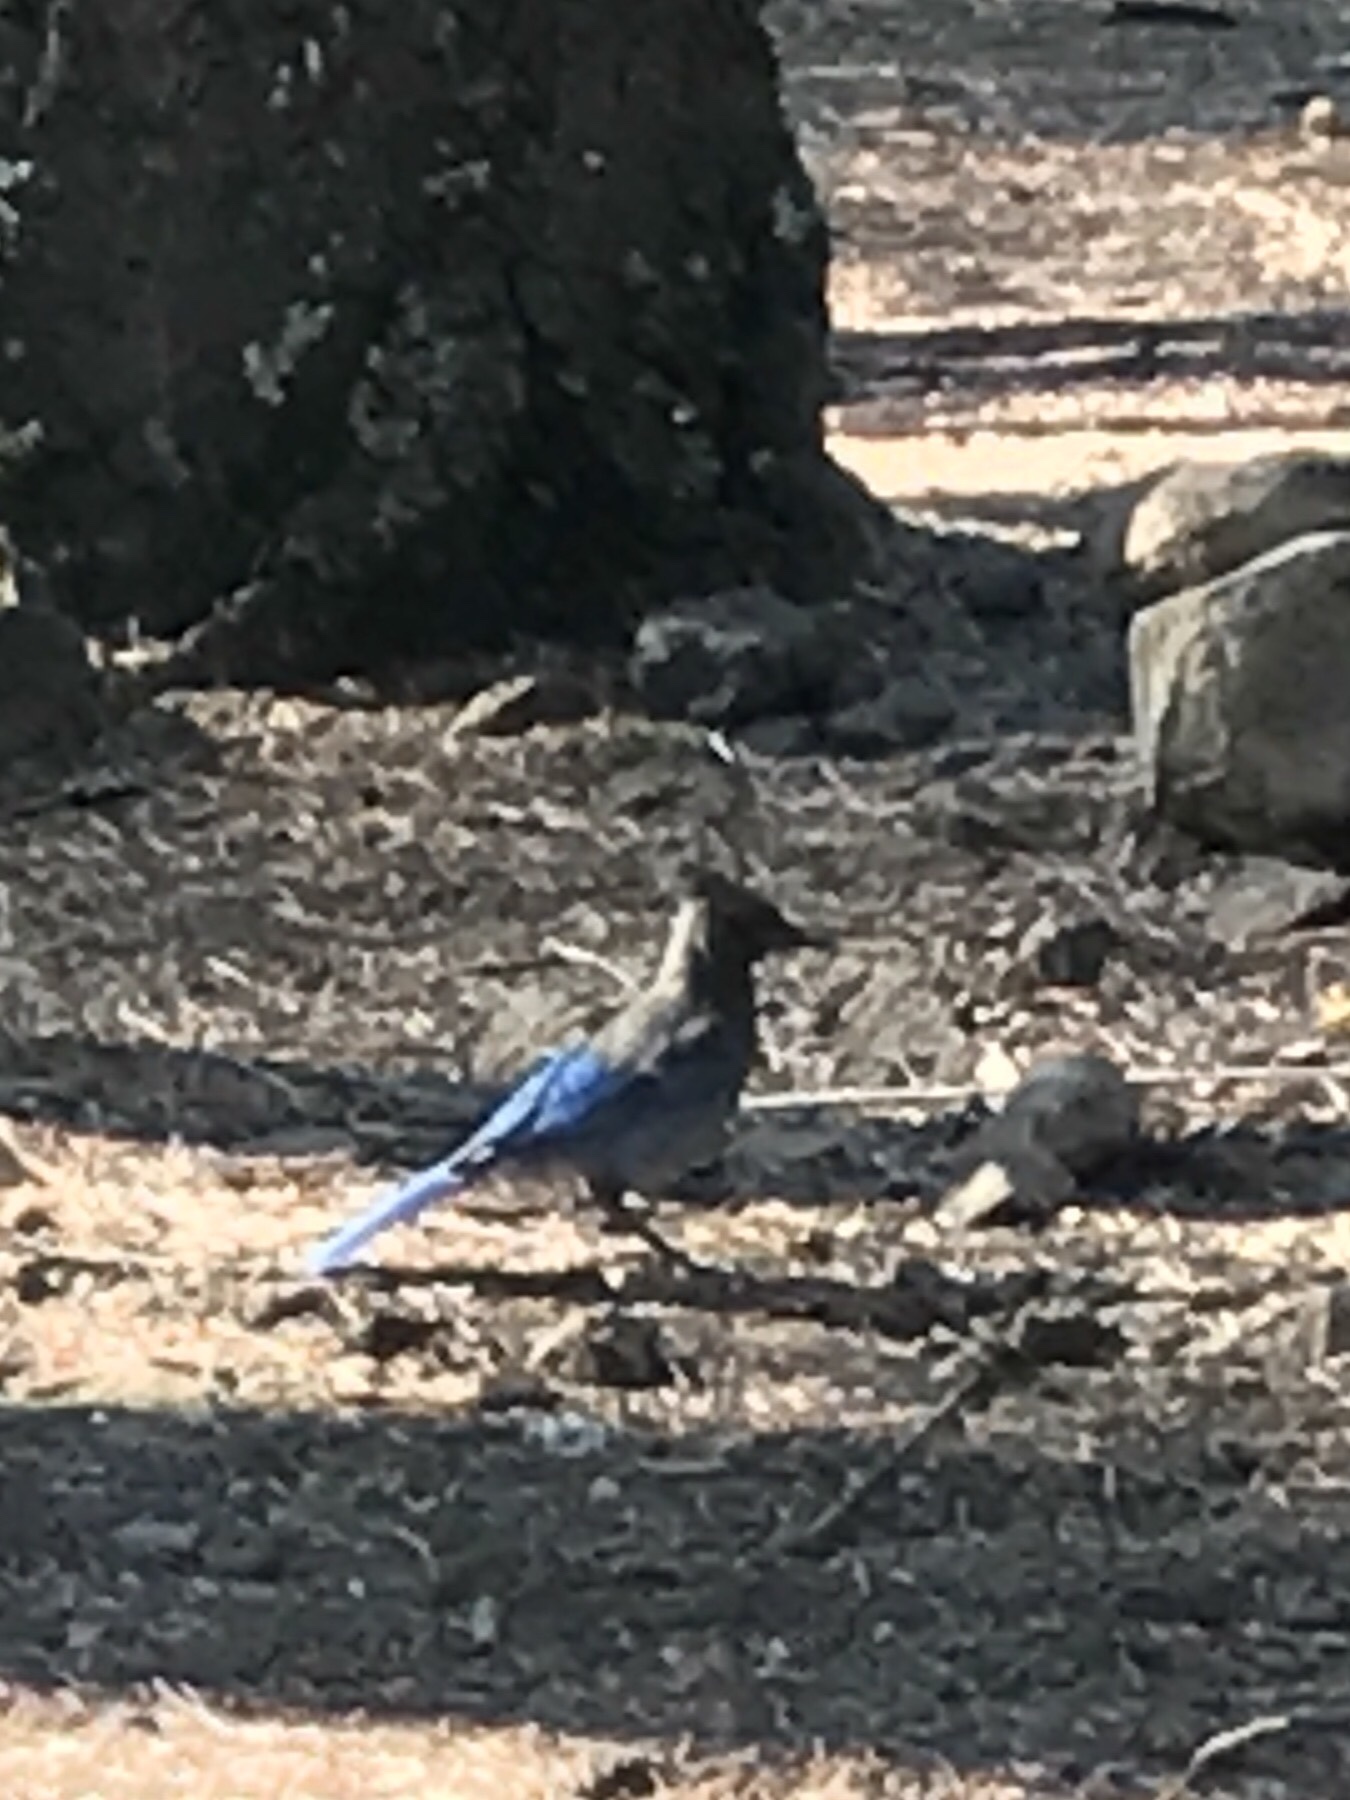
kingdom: Animalia
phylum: Chordata
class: Aves
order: Passeriformes
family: Corvidae
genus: Cyanocitta
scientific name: Cyanocitta stelleri
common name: Steller's jay
